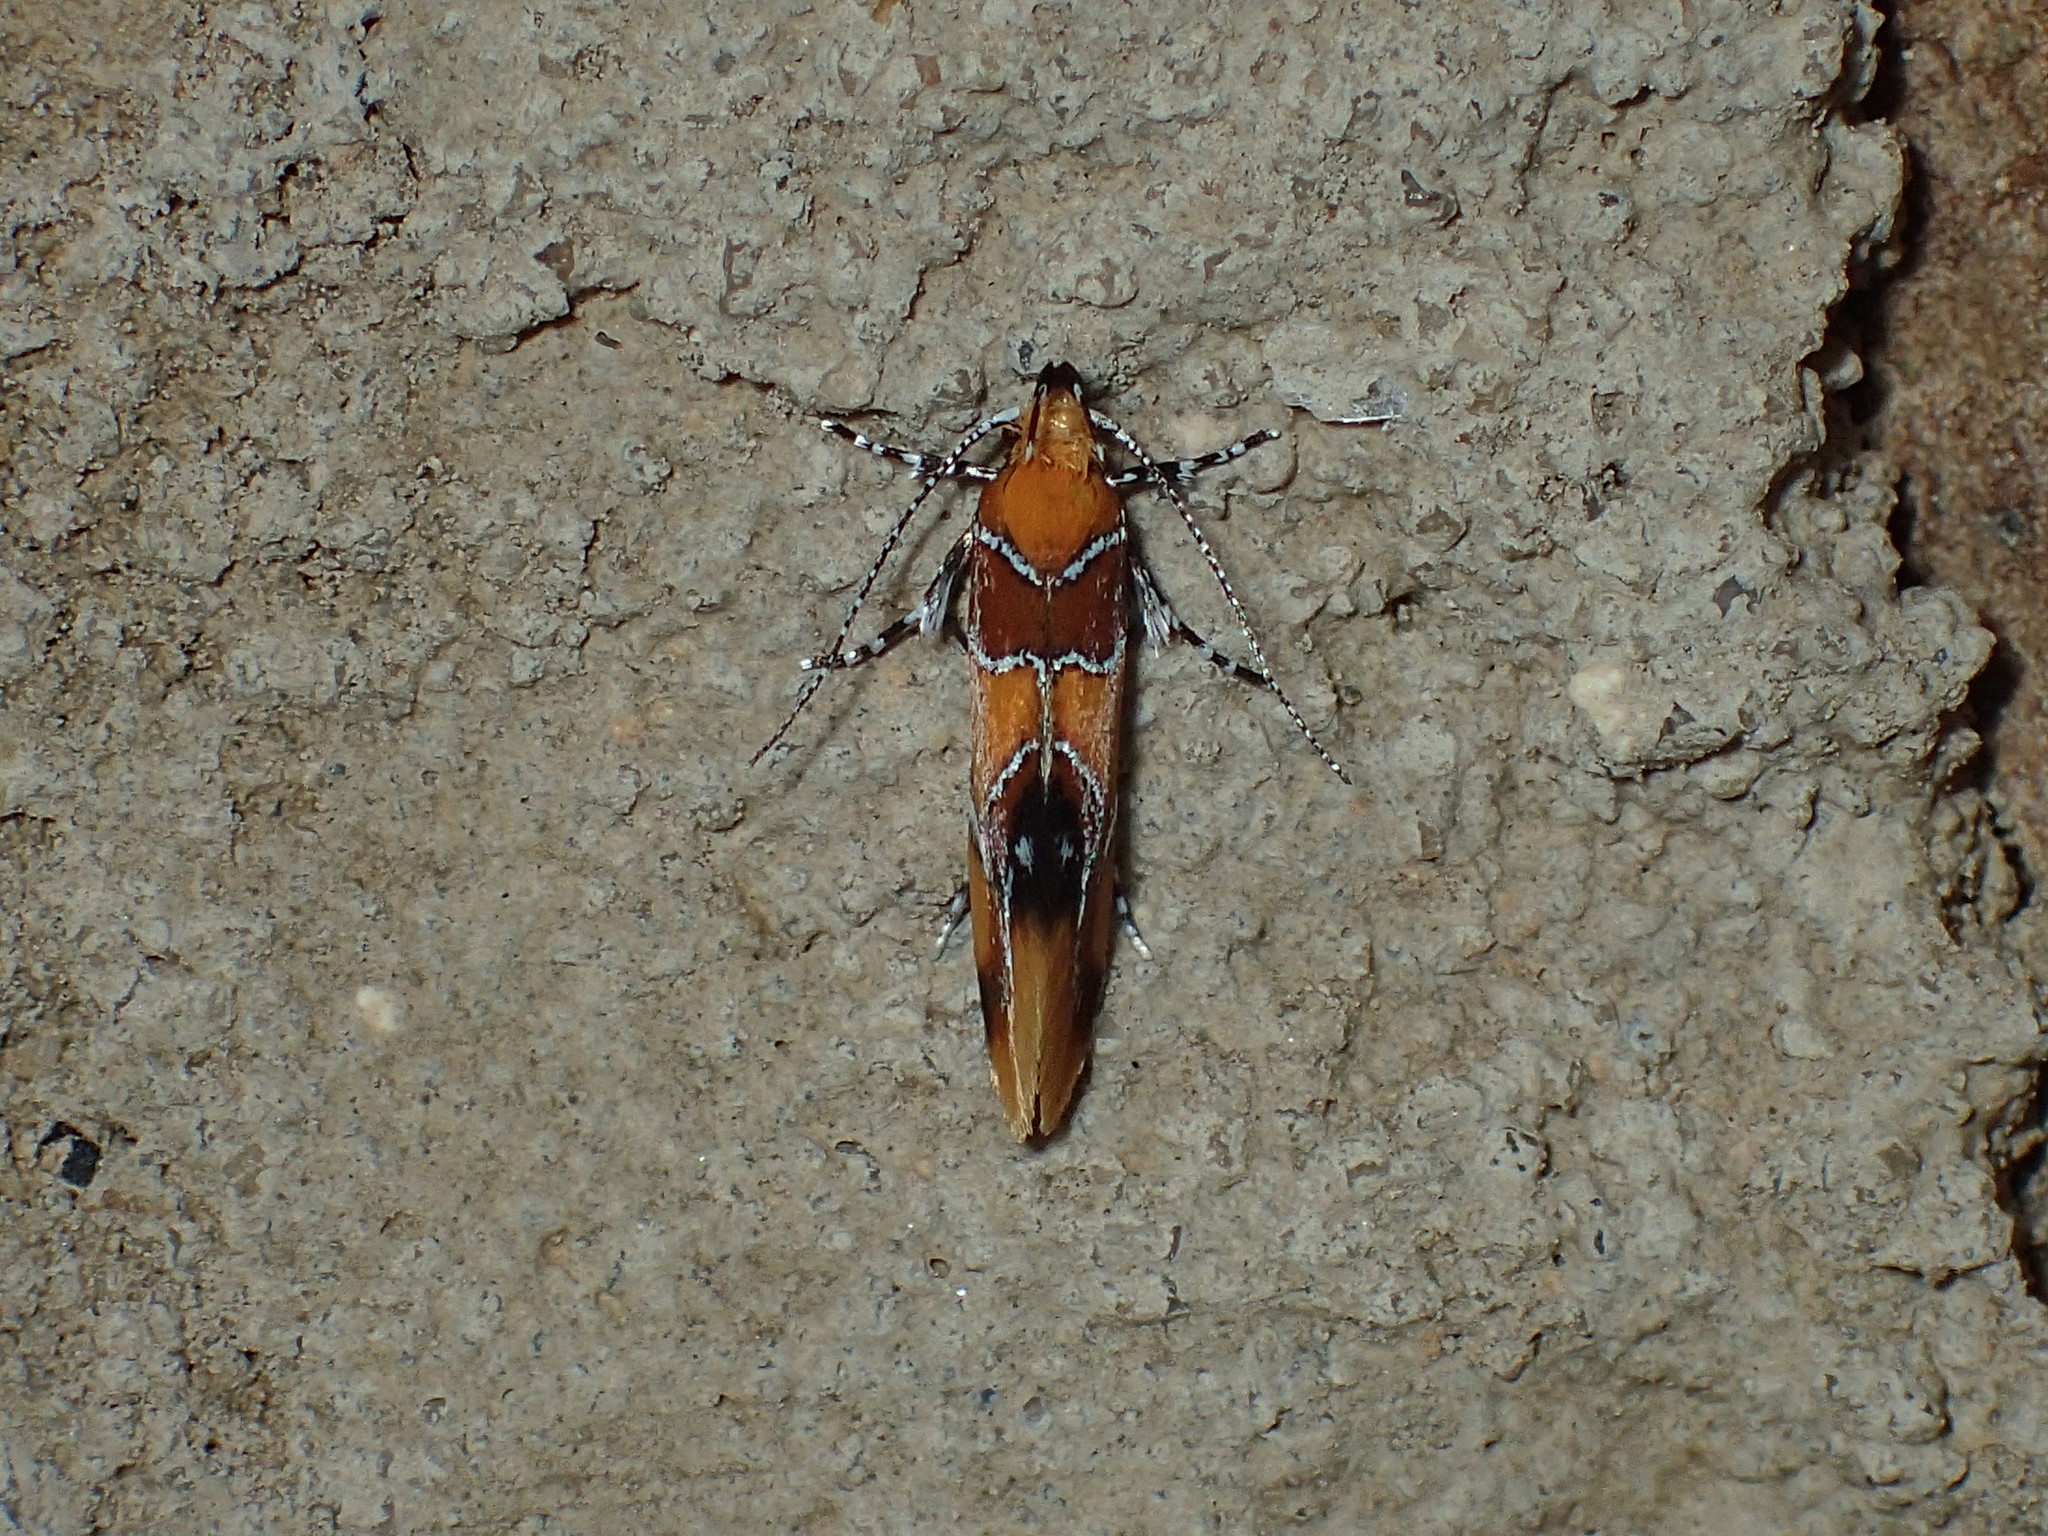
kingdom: Animalia
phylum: Arthropoda
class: Insecta
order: Lepidoptera
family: Oecophoridae
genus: Callima
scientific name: Callima argenticinctella
